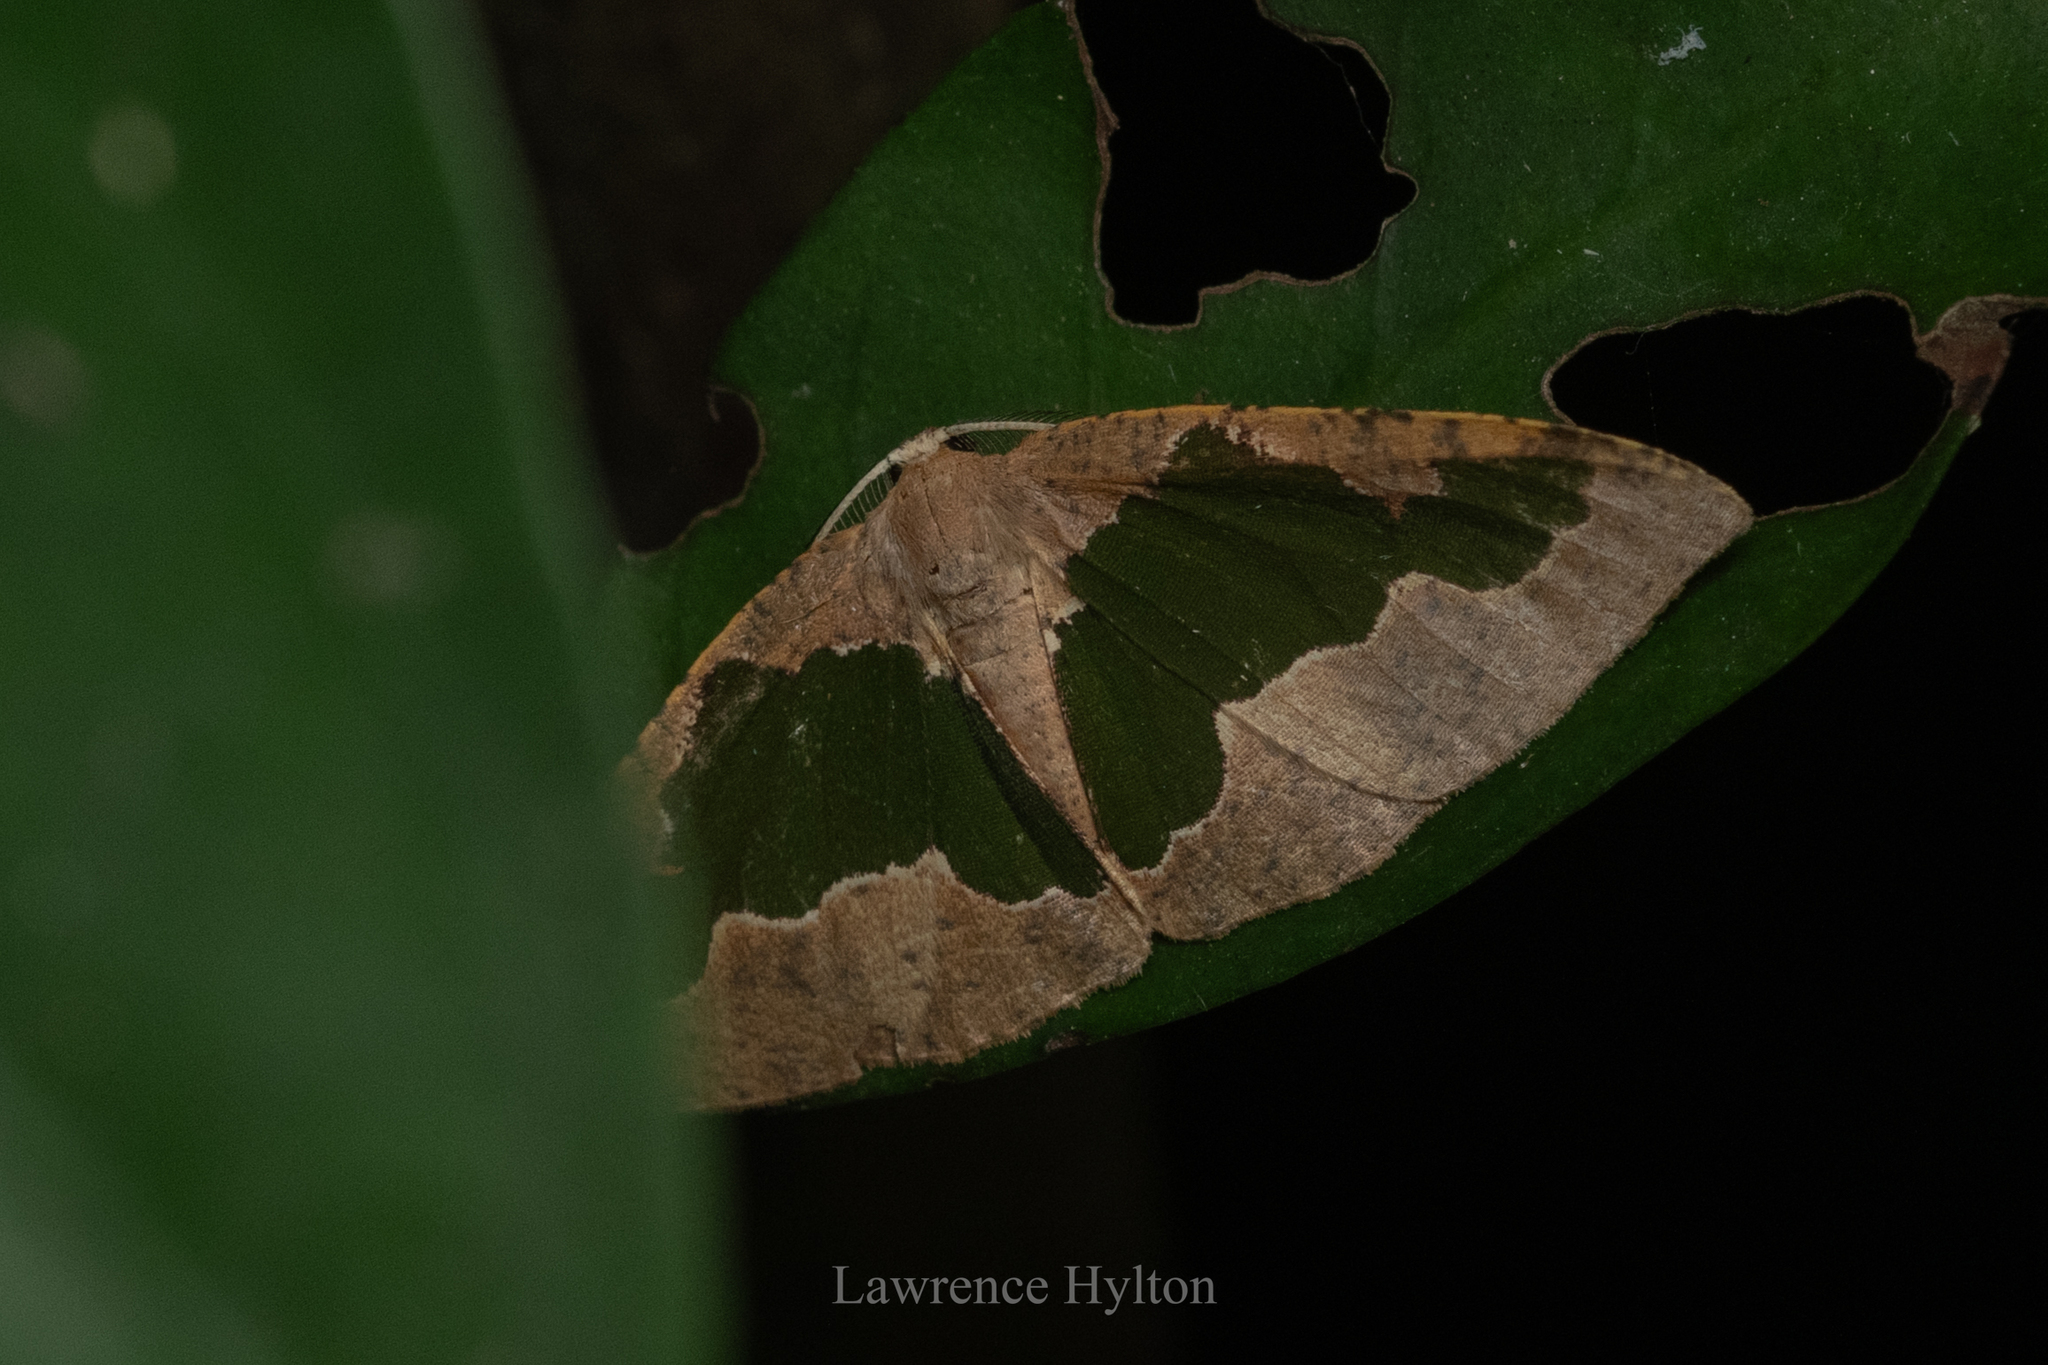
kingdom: Animalia
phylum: Arthropoda
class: Insecta
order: Lepidoptera
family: Geometridae
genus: Celenna
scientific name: Celenna festivaria
